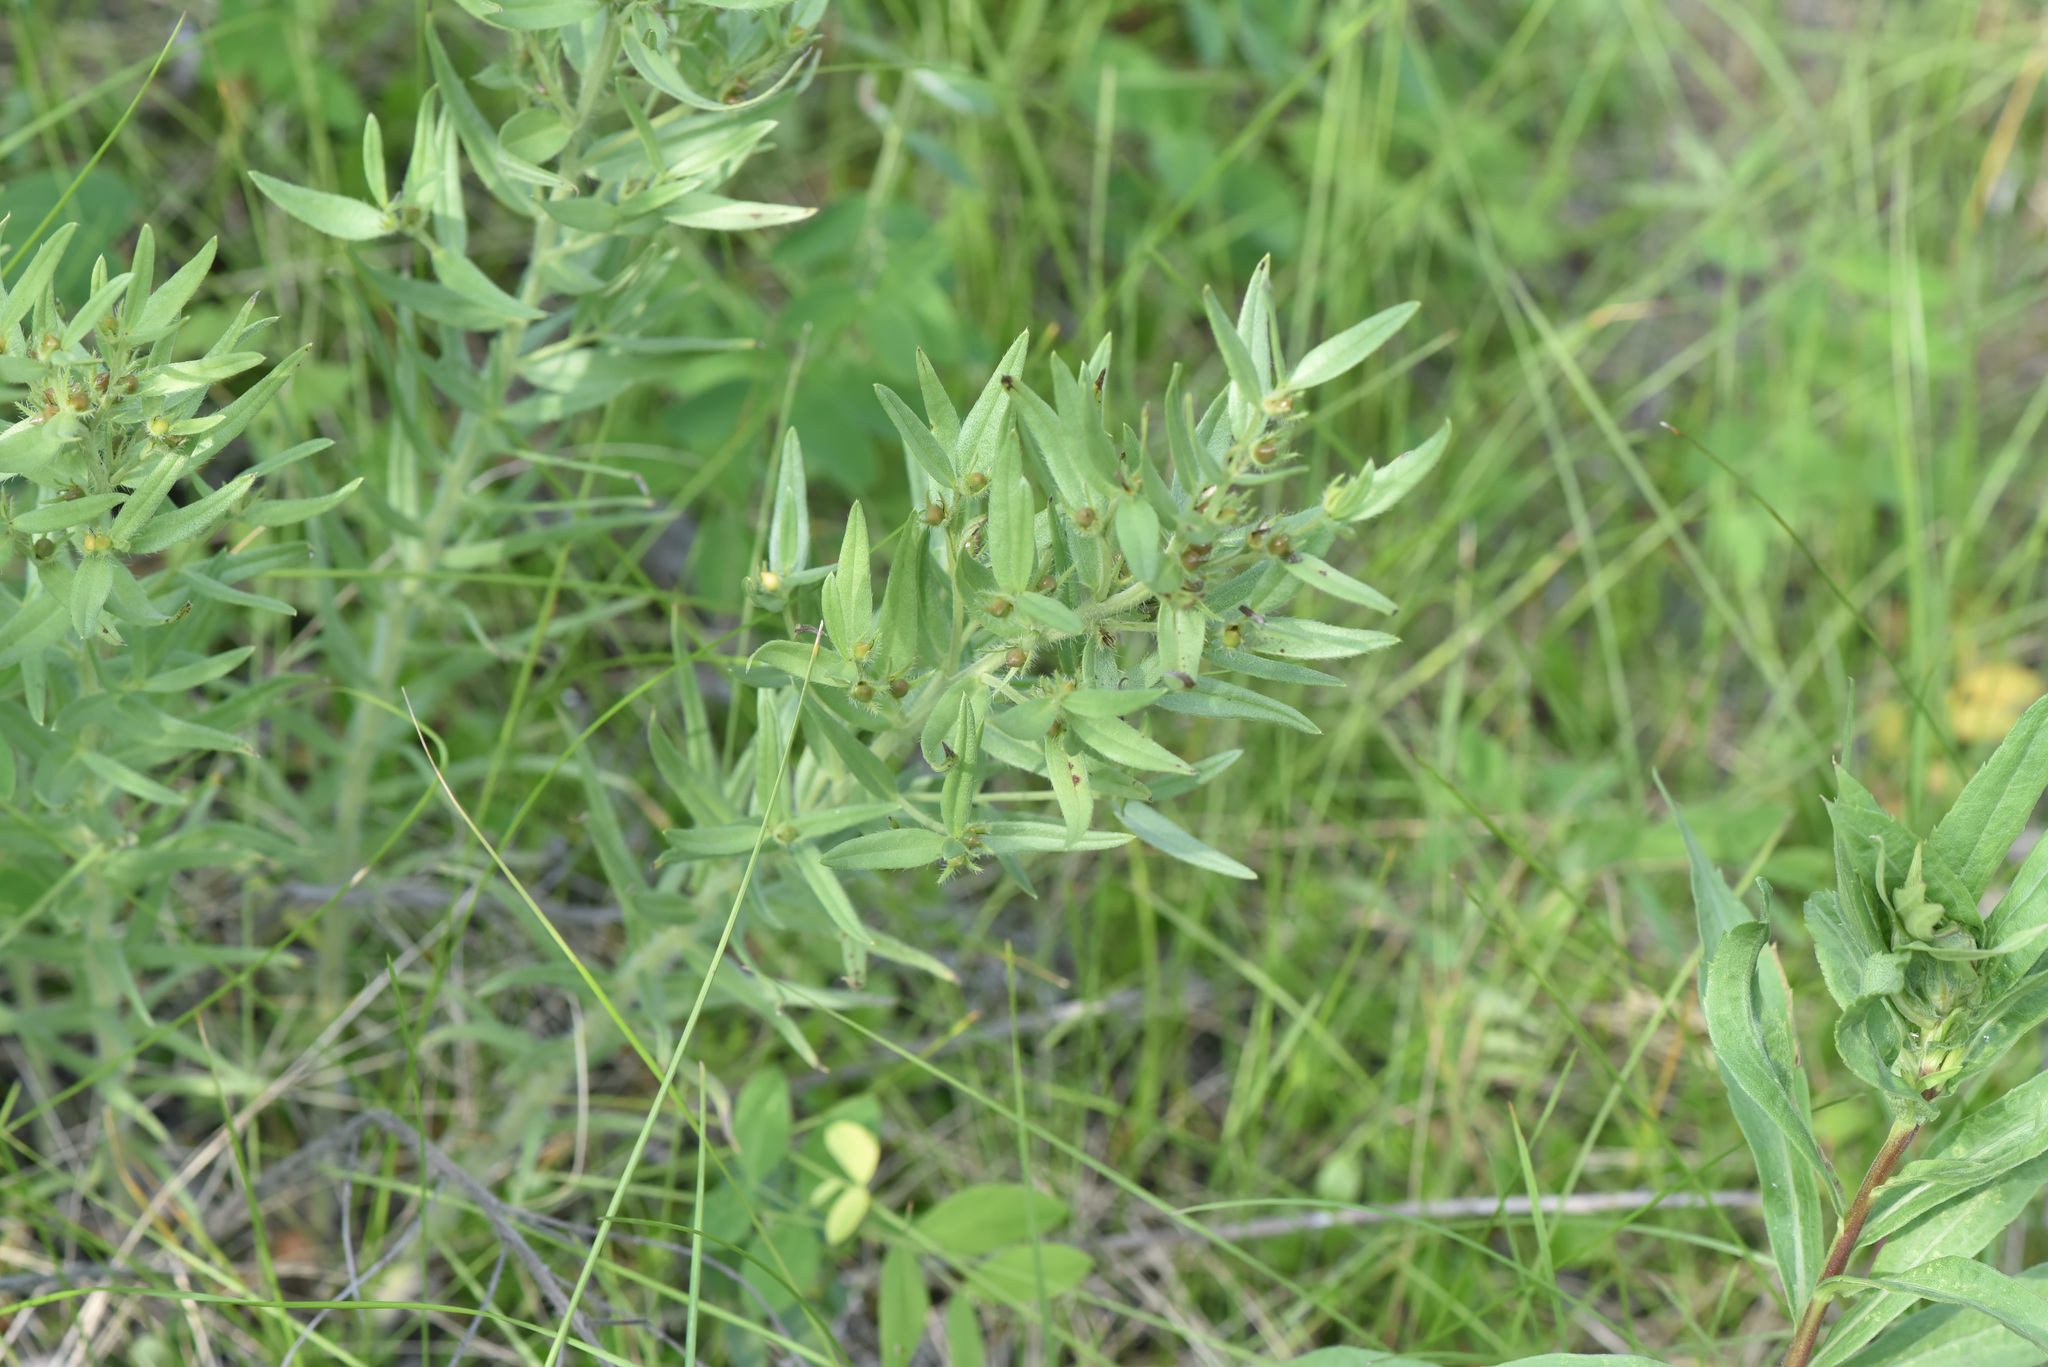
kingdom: Plantae
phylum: Tracheophyta
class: Magnoliopsida
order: Boraginales
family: Boraginaceae
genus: Lithospermum
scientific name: Lithospermum ruderale
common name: Western gromwell
